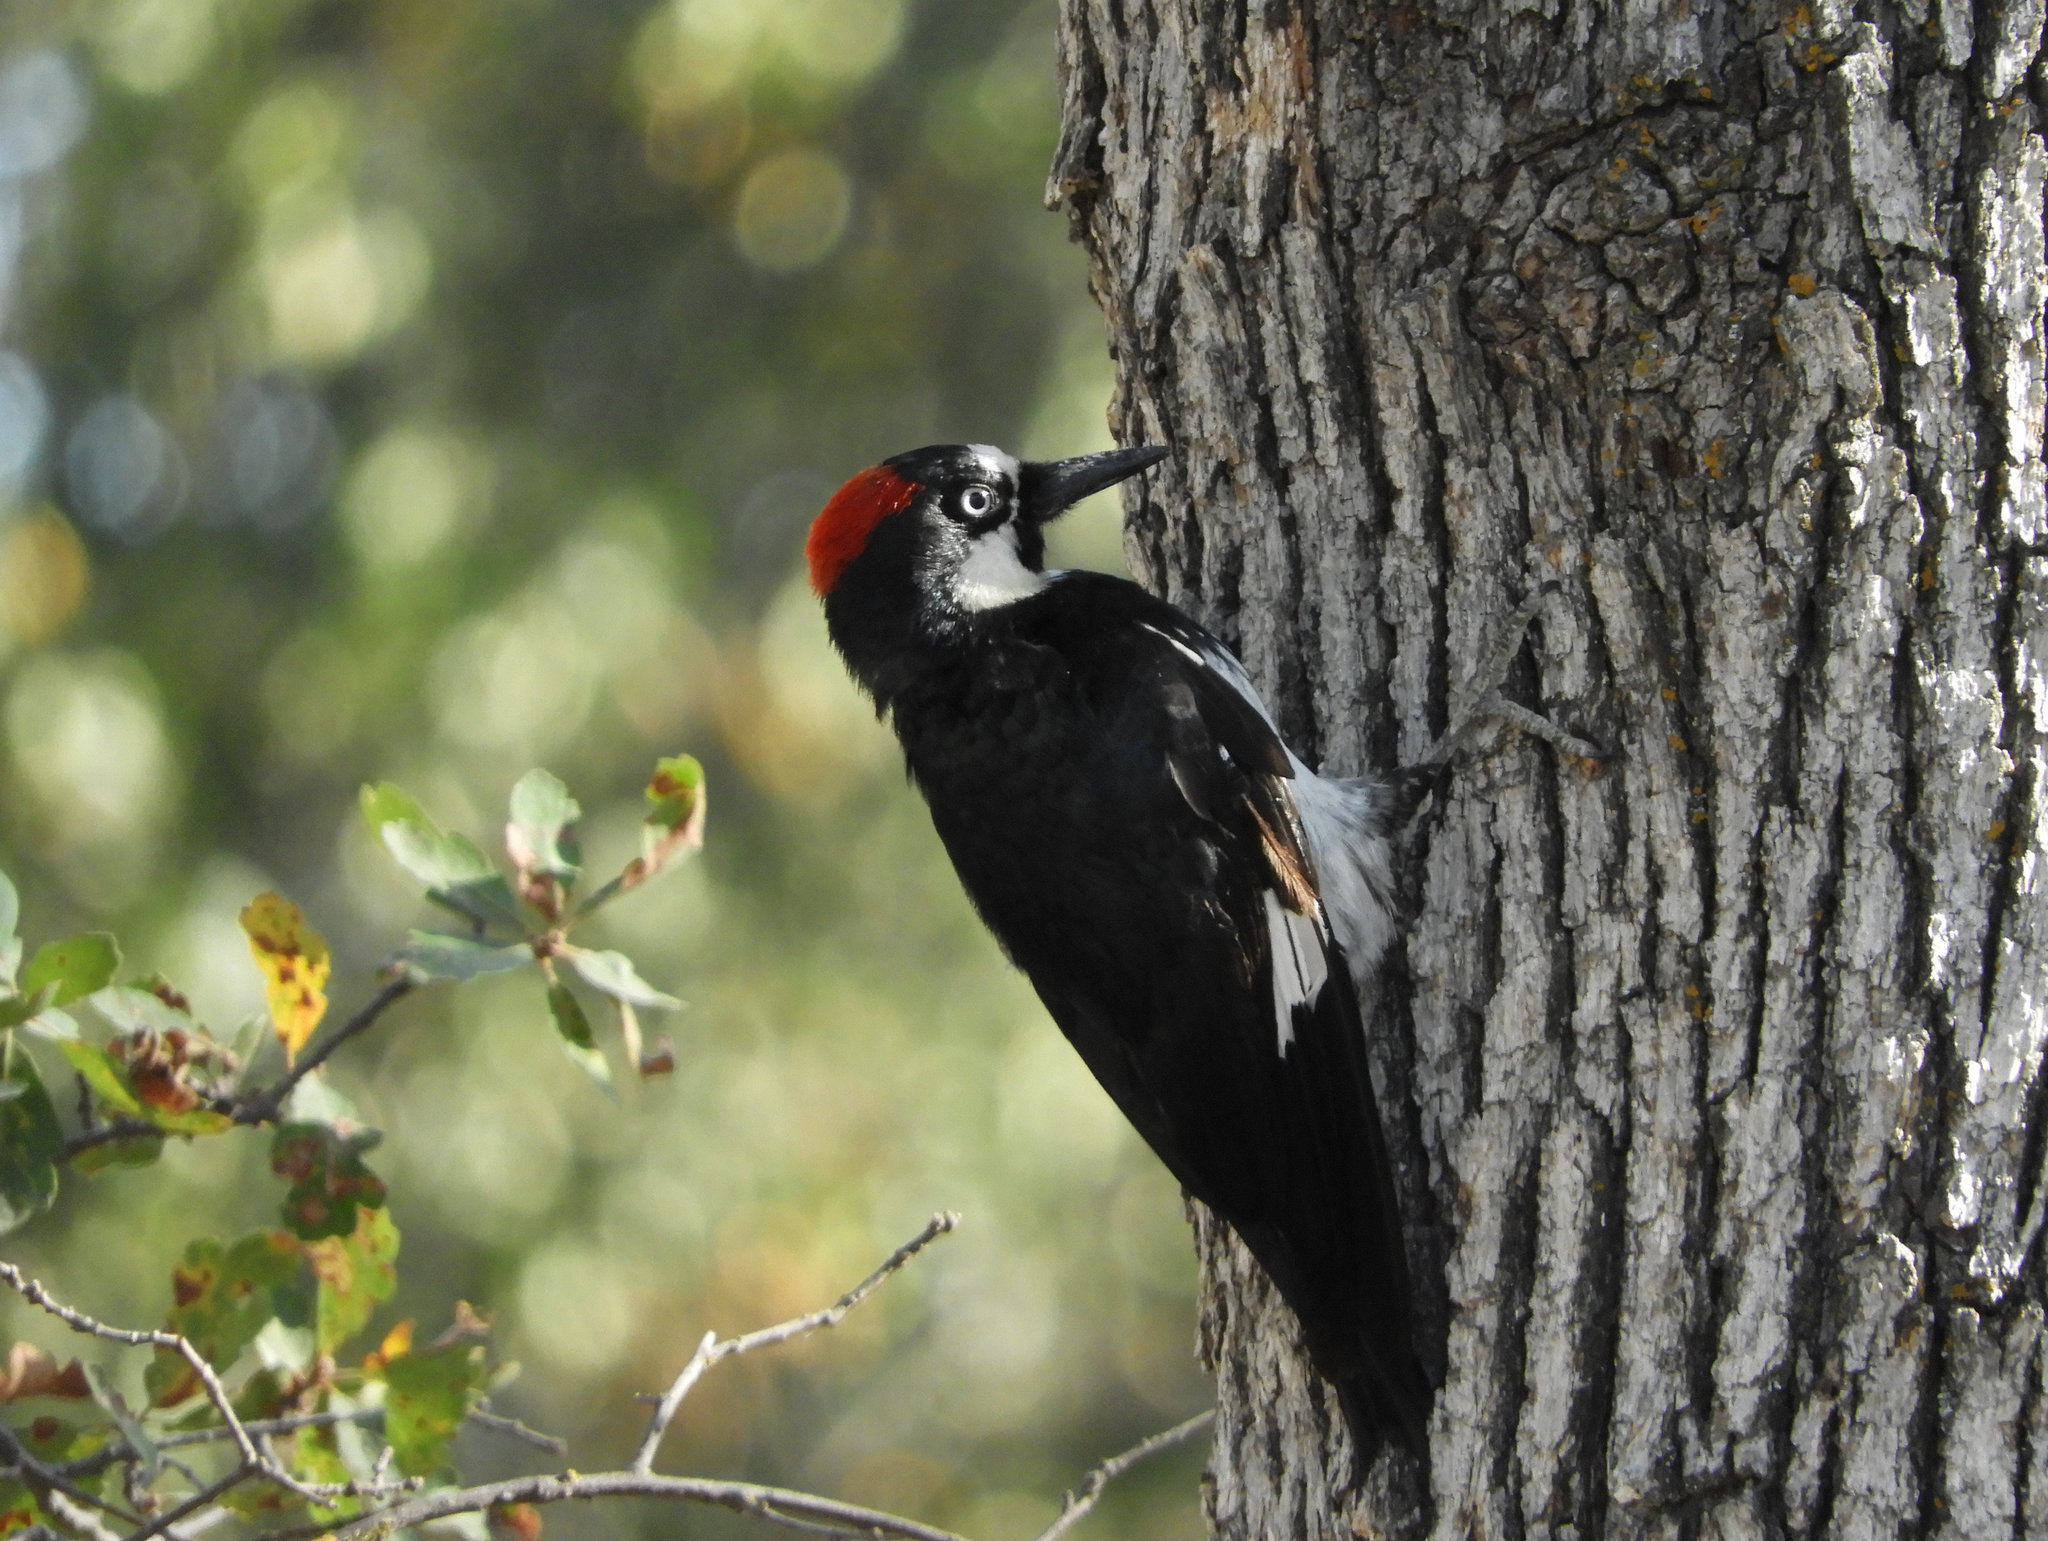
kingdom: Animalia
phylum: Chordata
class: Aves
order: Piciformes
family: Picidae
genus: Melanerpes
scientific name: Melanerpes formicivorus
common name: Acorn woodpecker
